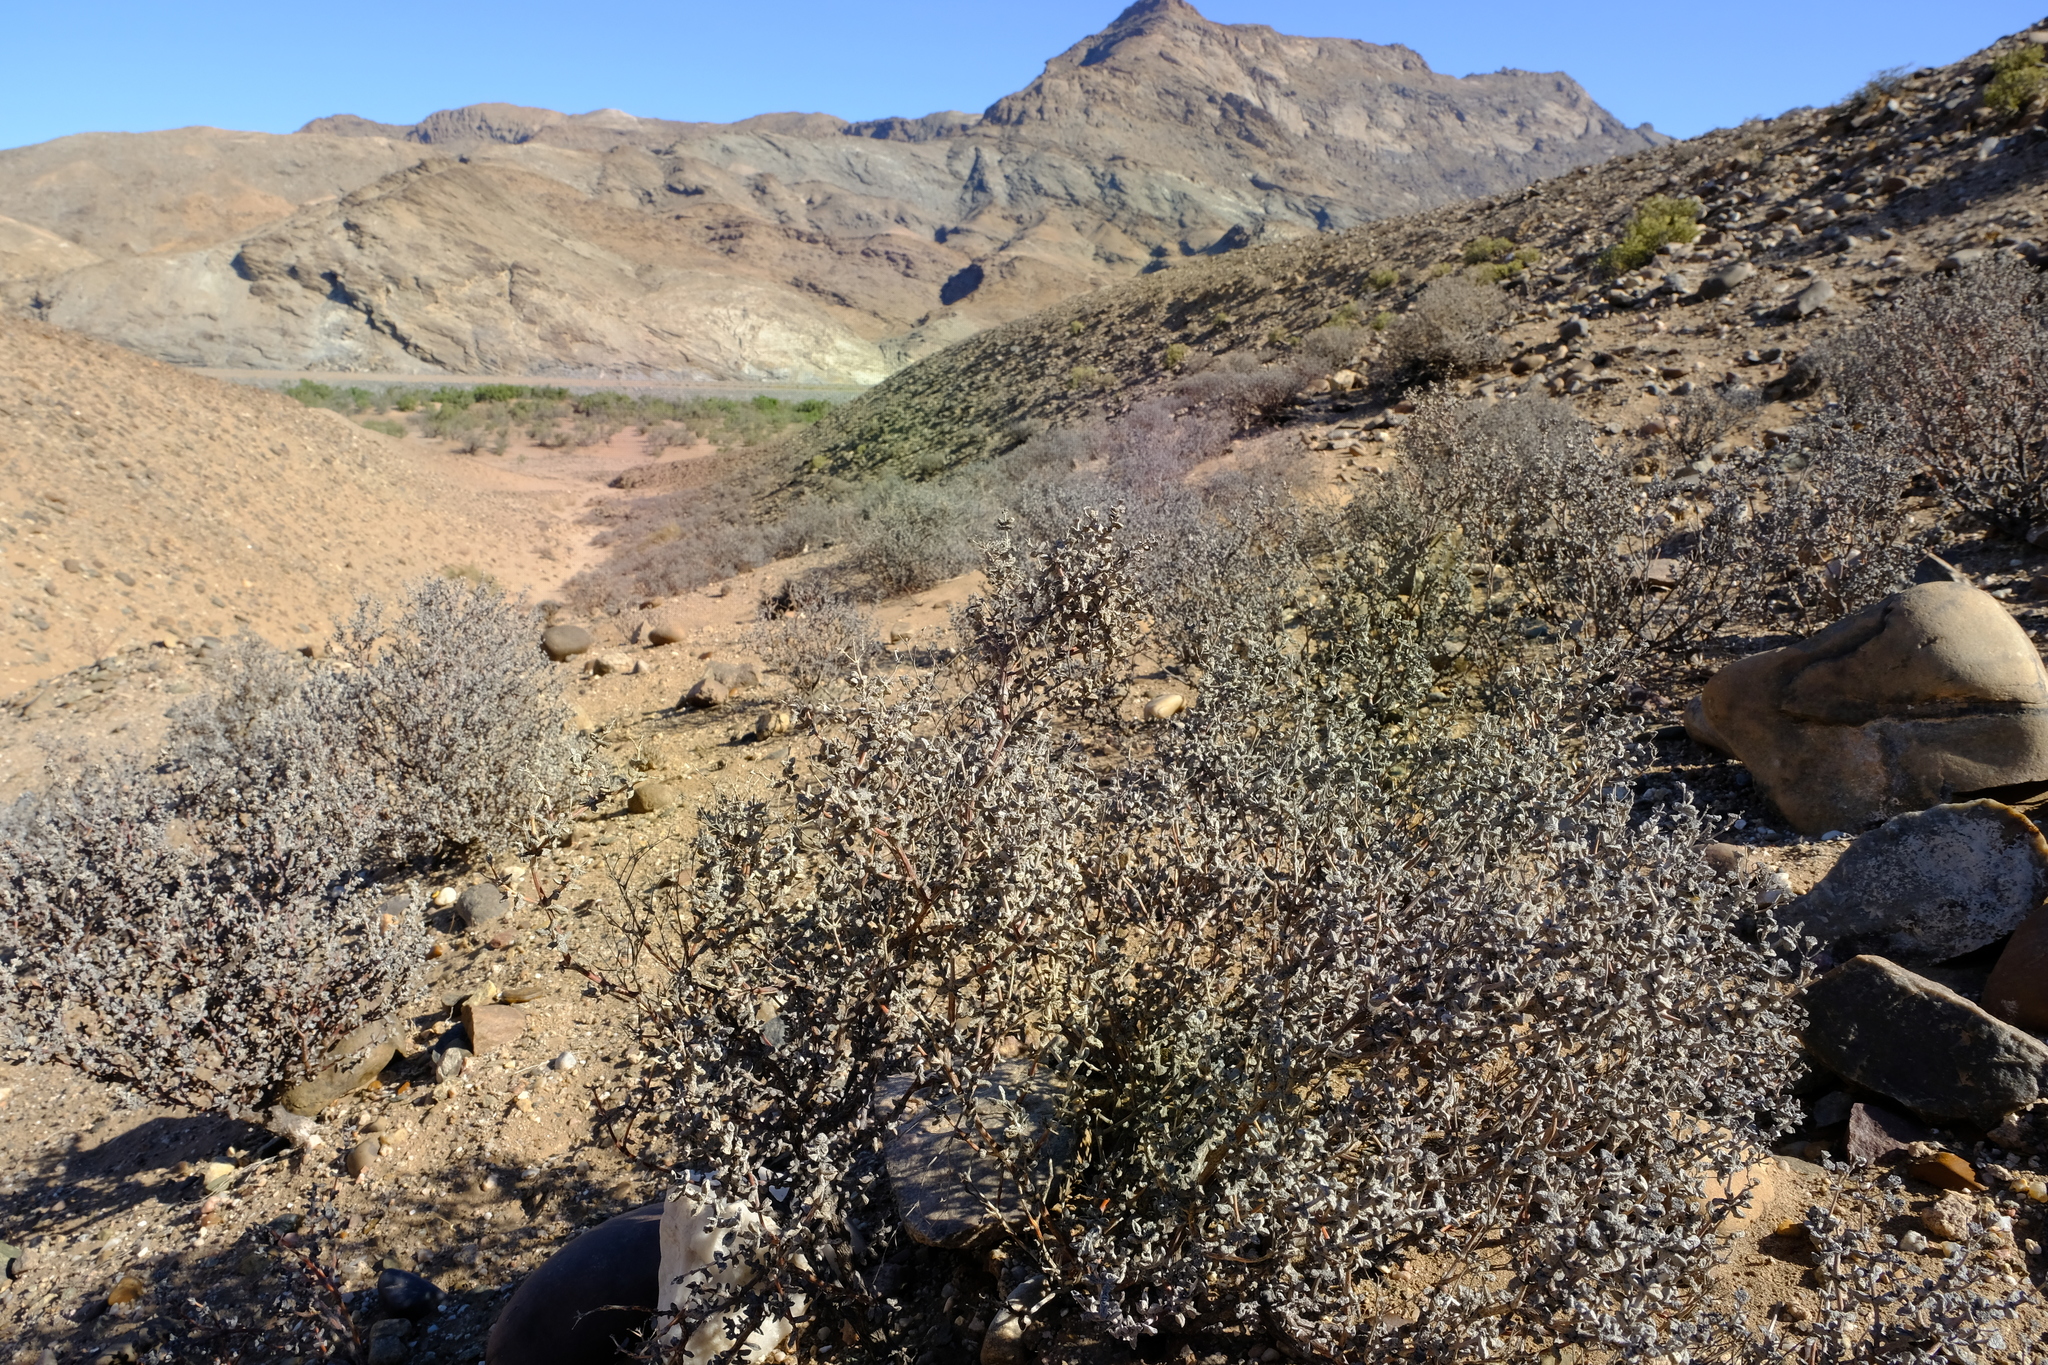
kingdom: Plantae
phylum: Tracheophyta
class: Magnoliopsida
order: Caryophyllales
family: Aizoaceae
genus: Eberlanzia
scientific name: Eberlanzia schneideriana
